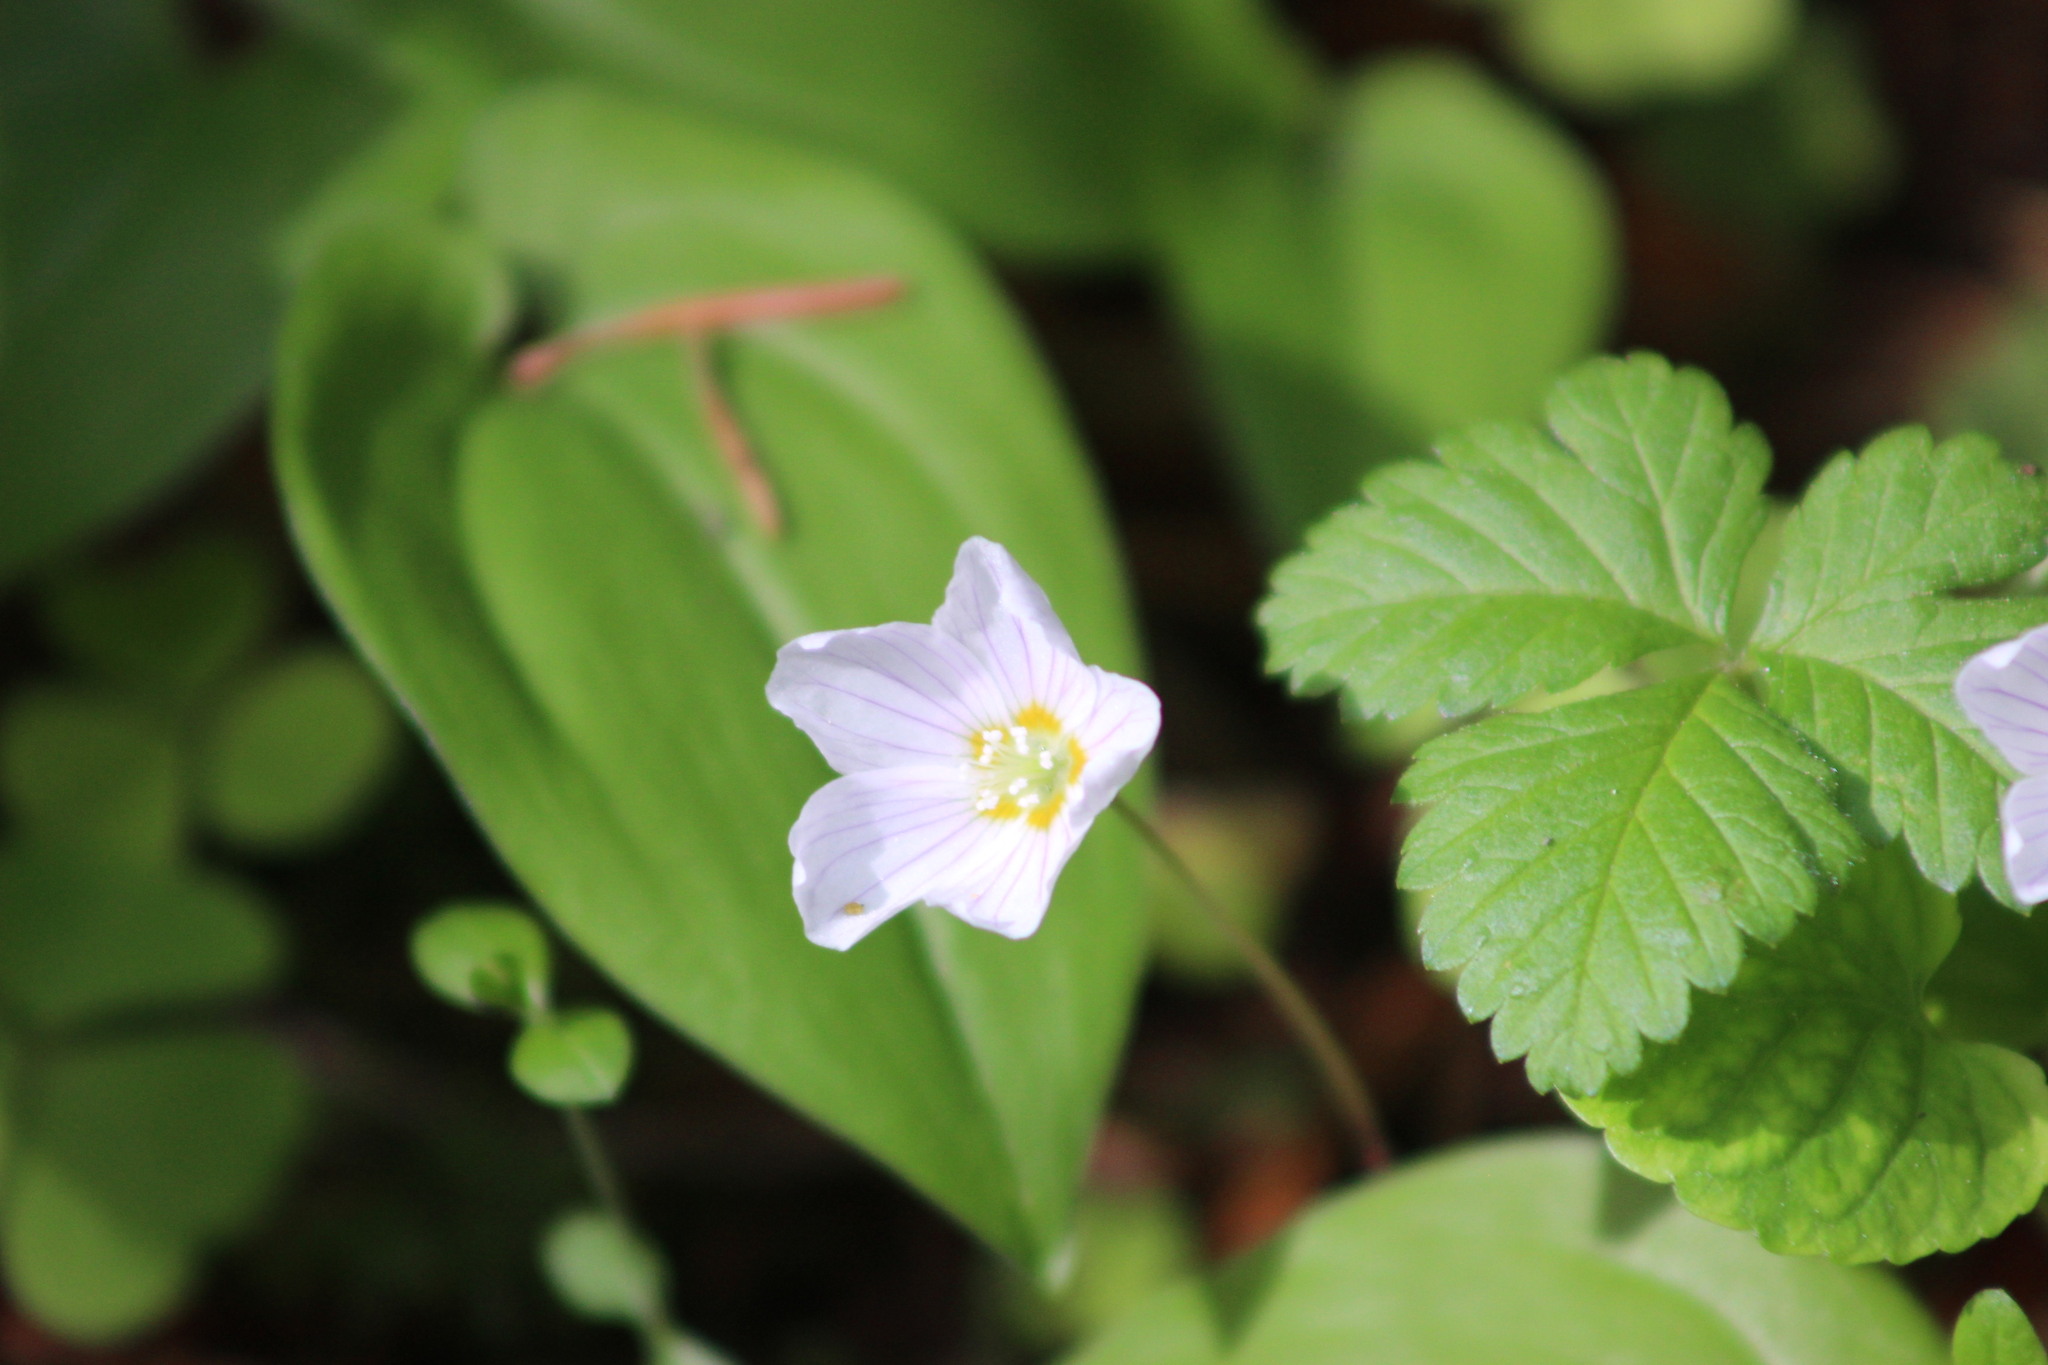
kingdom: Plantae
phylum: Tracheophyta
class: Magnoliopsida
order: Oxalidales
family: Oxalidaceae
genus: Oxalis
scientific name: Oxalis acetosella
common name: Wood-sorrel
